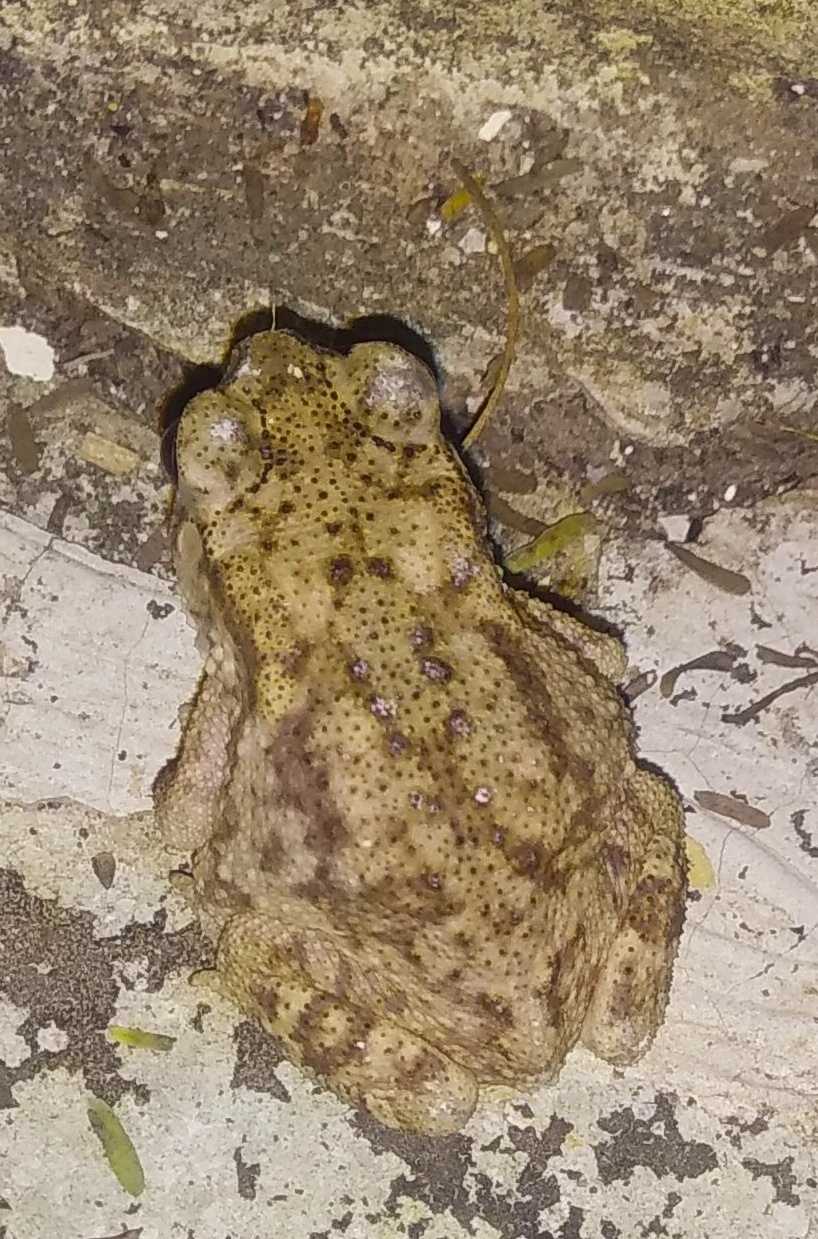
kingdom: Animalia
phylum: Chordata
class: Amphibia
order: Anura
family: Bufonidae
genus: Duttaphrynus
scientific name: Duttaphrynus melanostictus
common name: Common sunda toad
